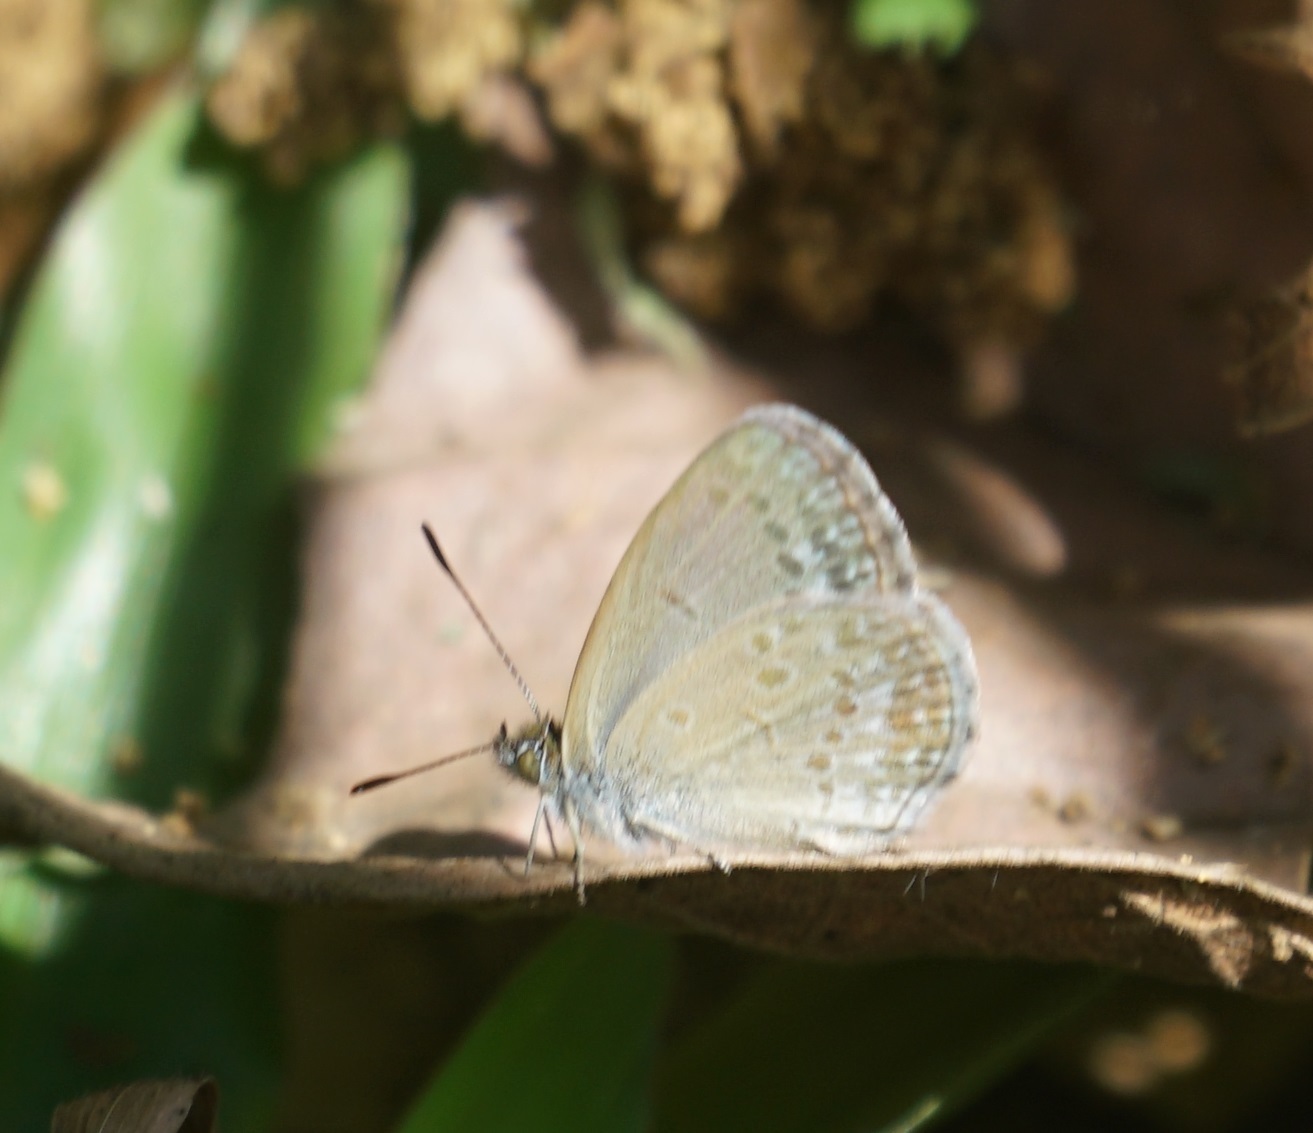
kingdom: Animalia
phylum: Arthropoda
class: Insecta
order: Lepidoptera
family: Lycaenidae
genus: Zizina
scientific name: Zizina labradus
